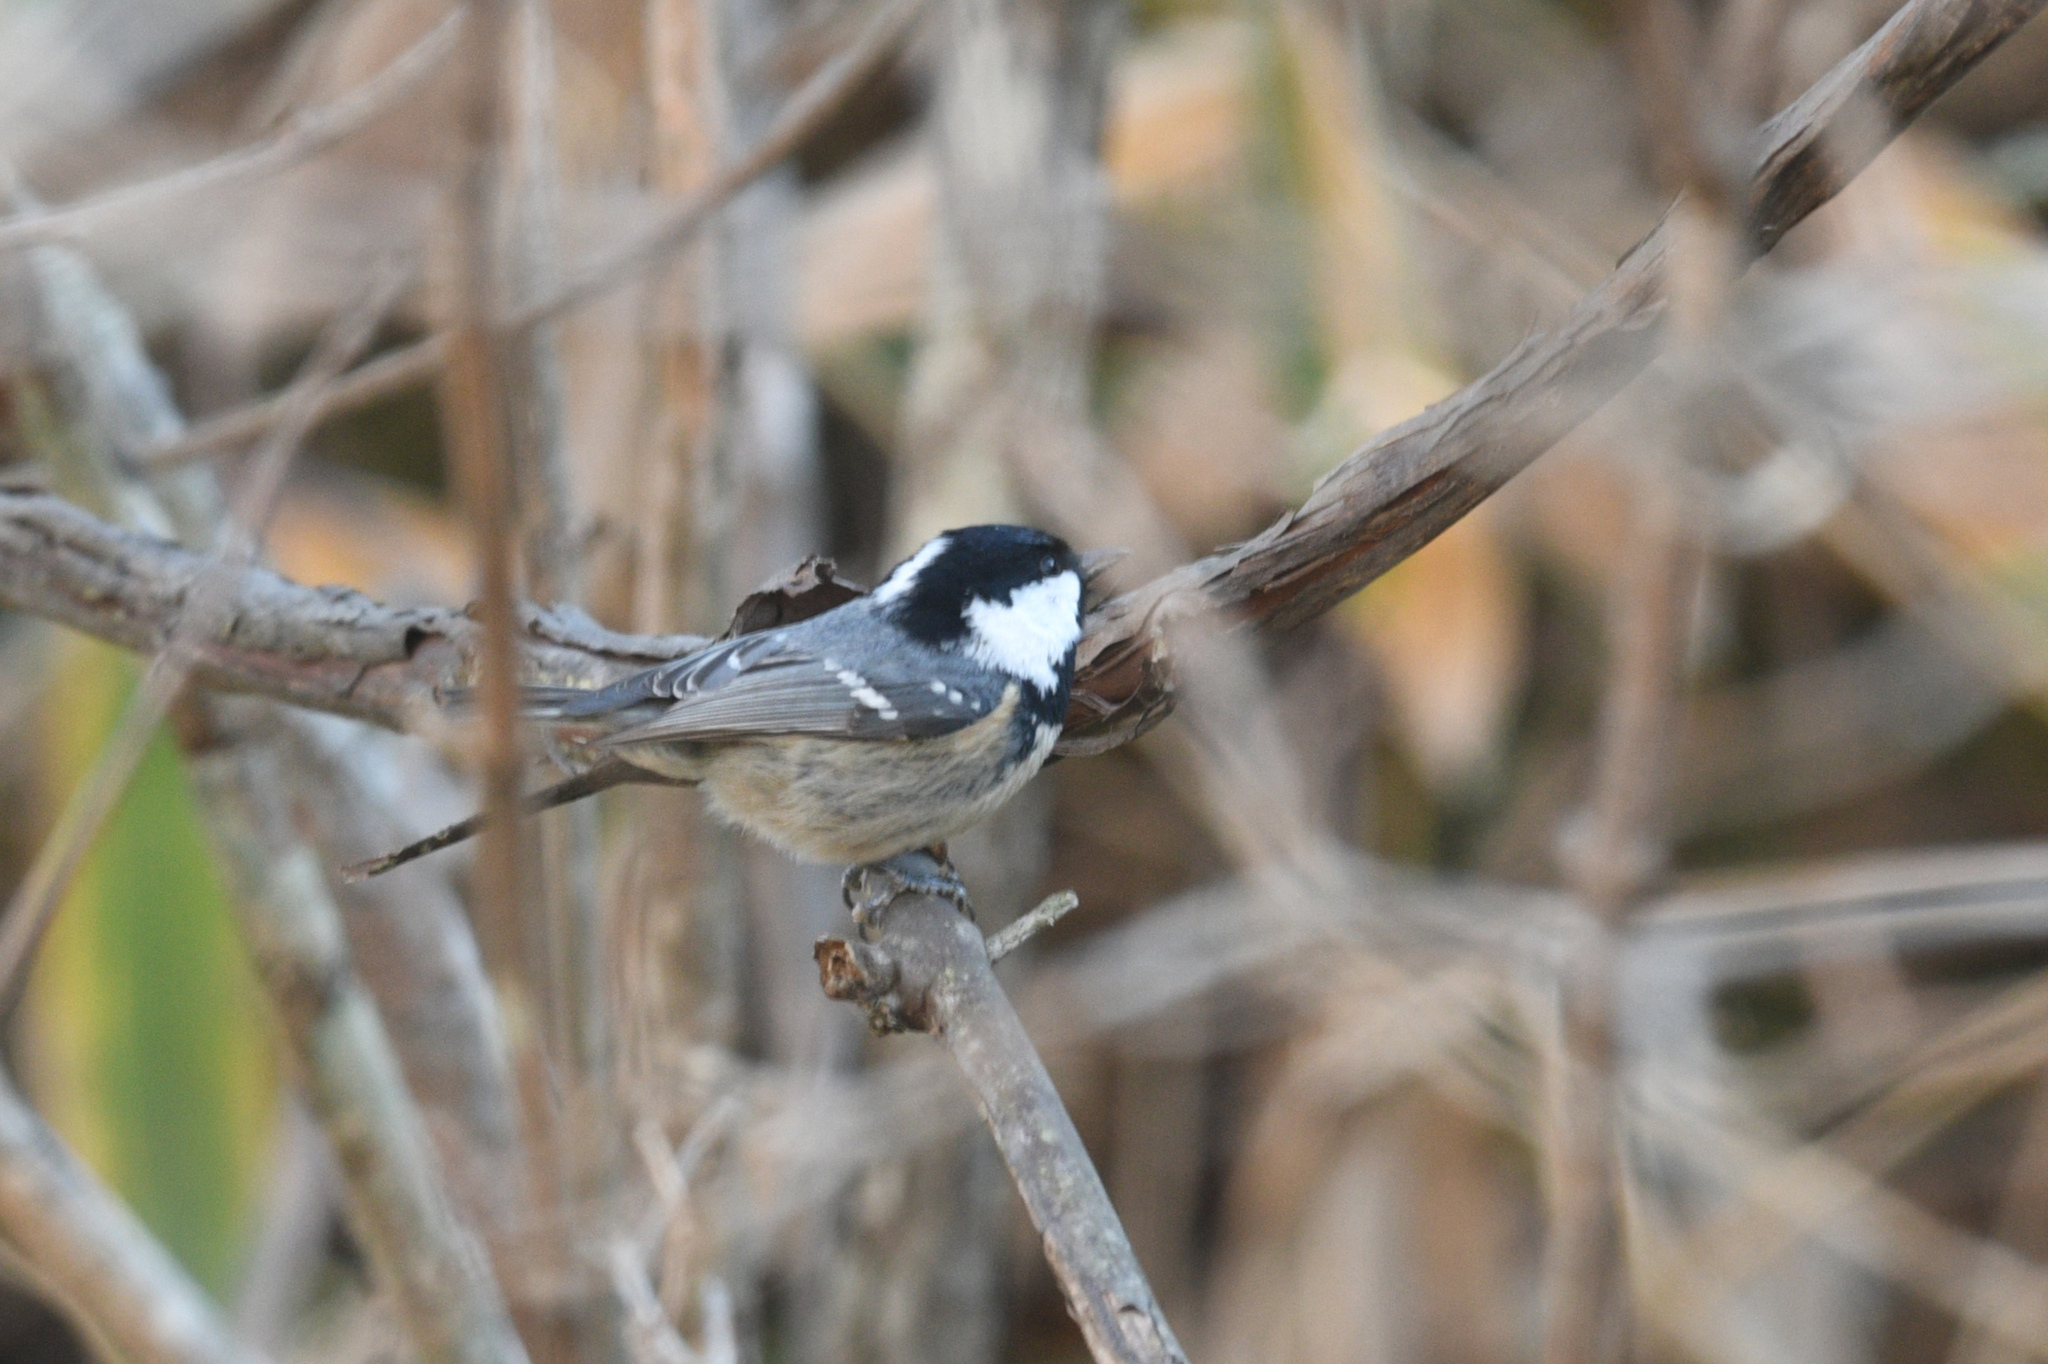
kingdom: Animalia
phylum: Chordata
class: Aves
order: Passeriformes
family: Paridae
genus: Periparus
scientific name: Periparus ater
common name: Coal tit
